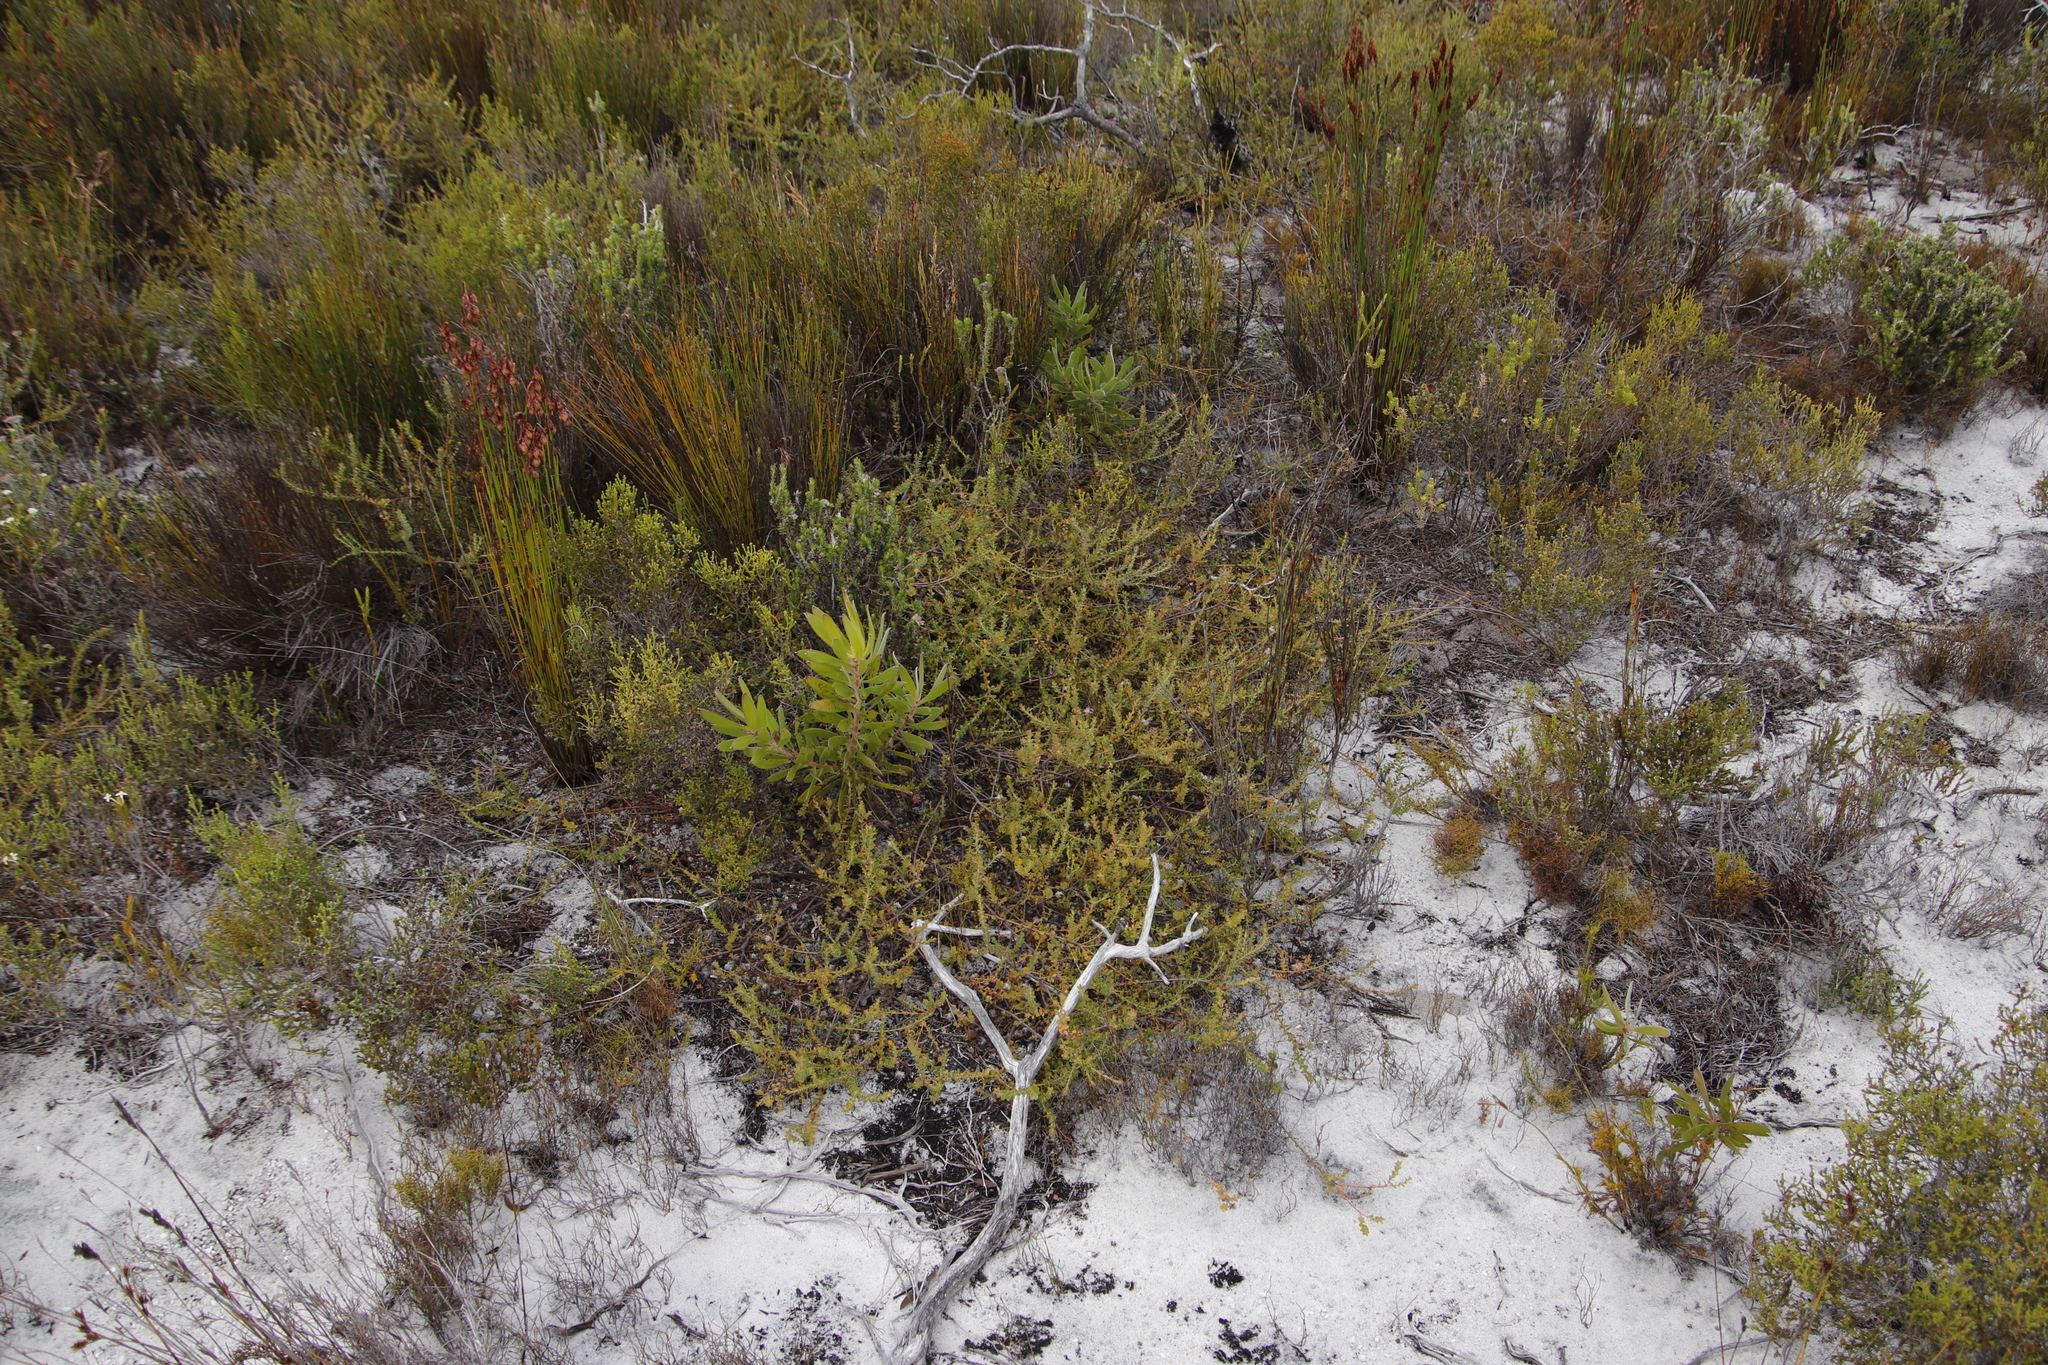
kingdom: Plantae
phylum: Tracheophyta
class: Magnoliopsida
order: Proteales
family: Proteaceae
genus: Diastella
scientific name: Diastella divaricata
